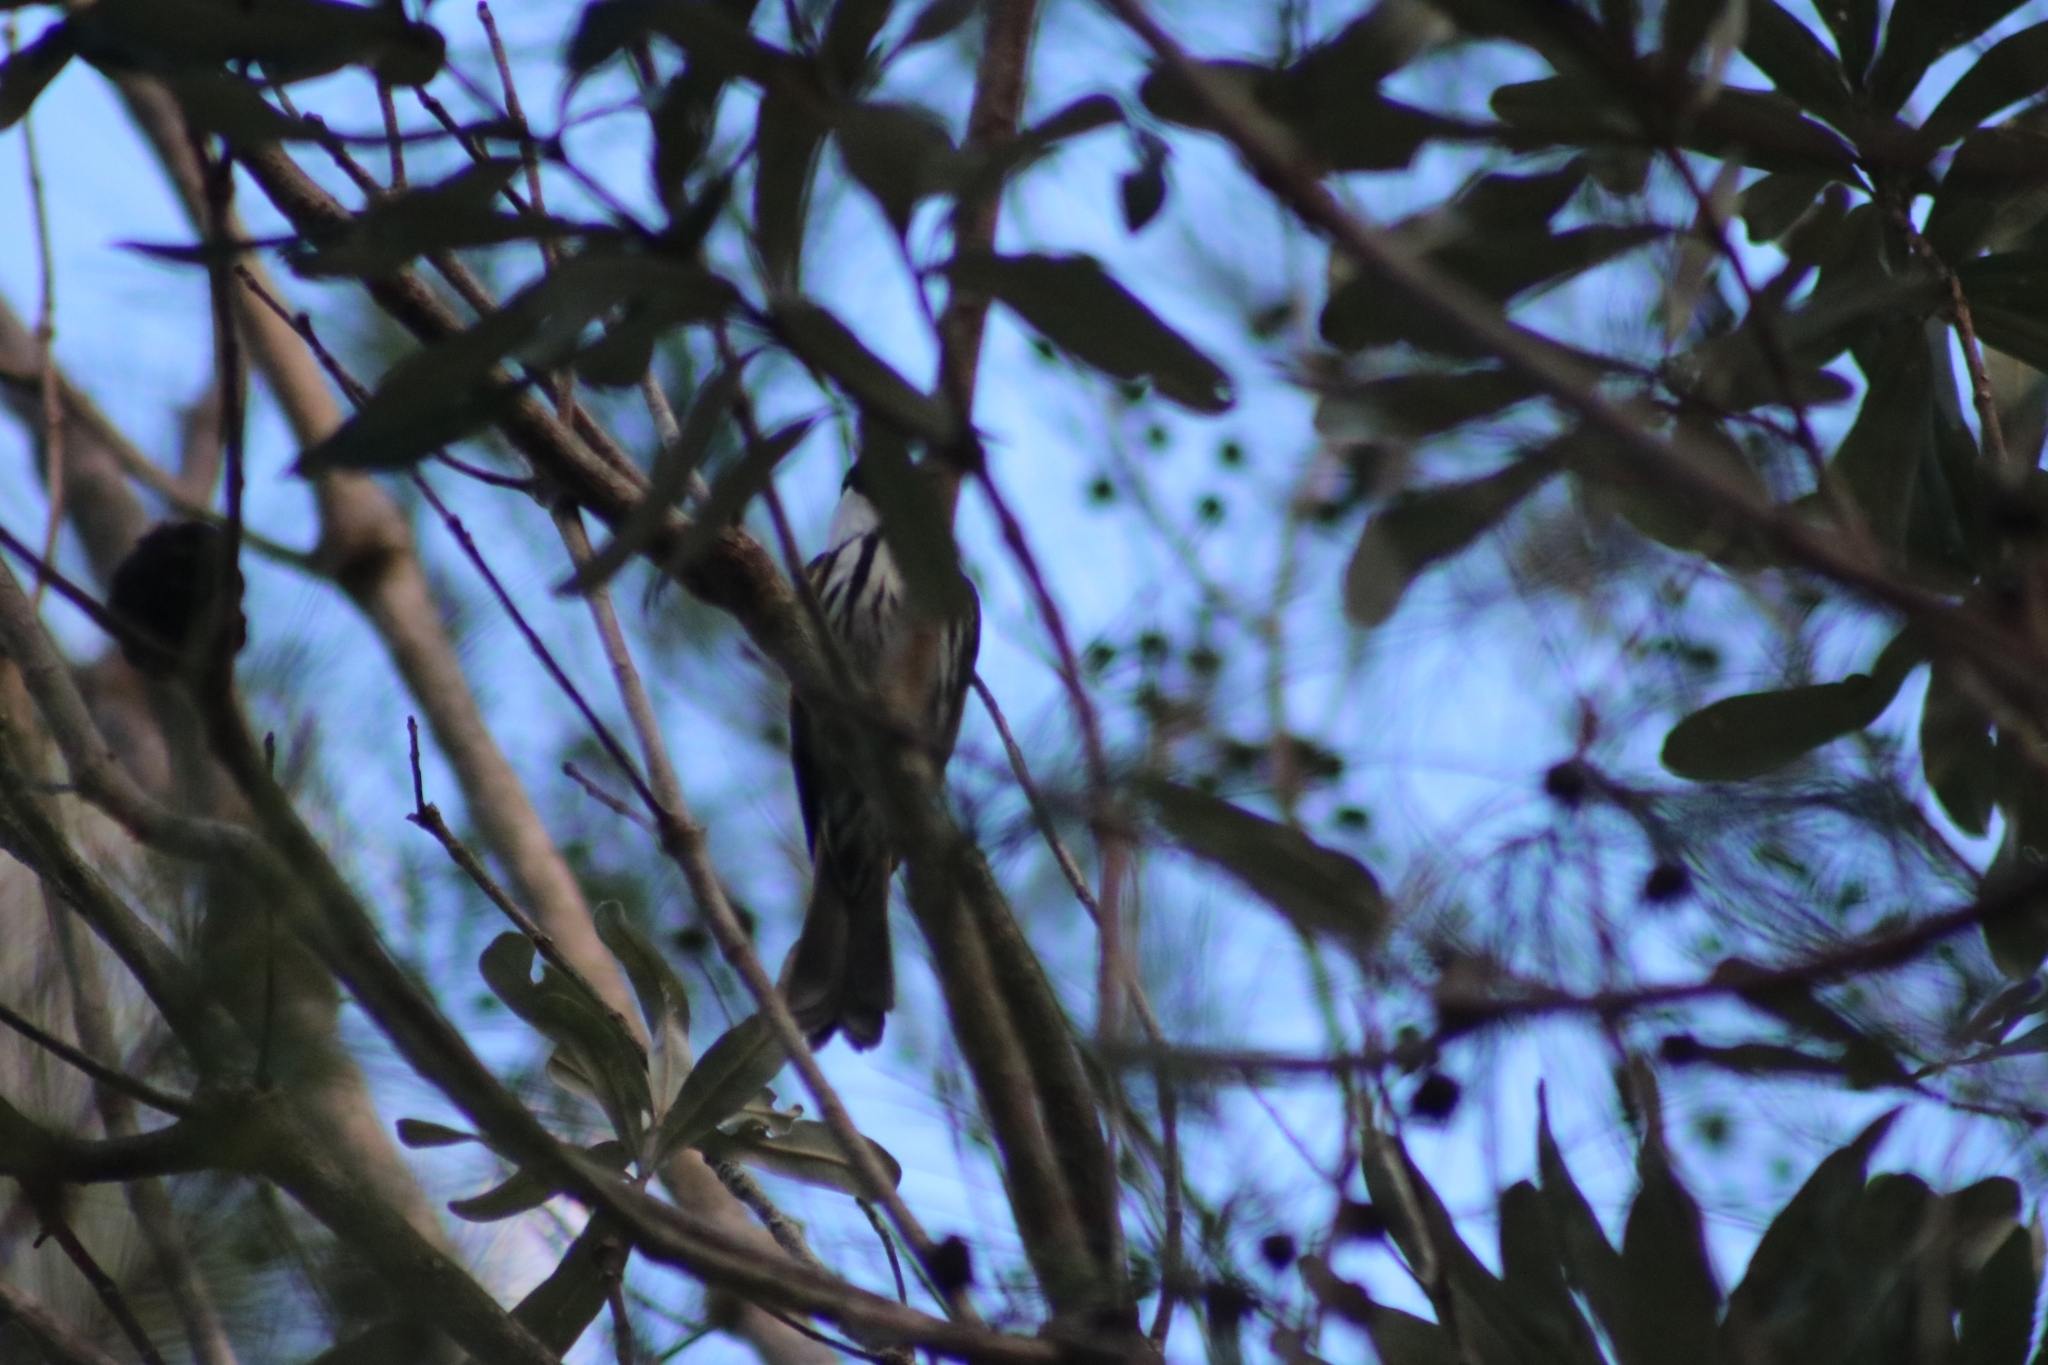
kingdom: Animalia
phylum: Chordata
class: Aves
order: Passeriformes
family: Meliphagidae
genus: Phylidonyris
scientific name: Phylidonyris niger
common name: White-cheeked honeyeater
